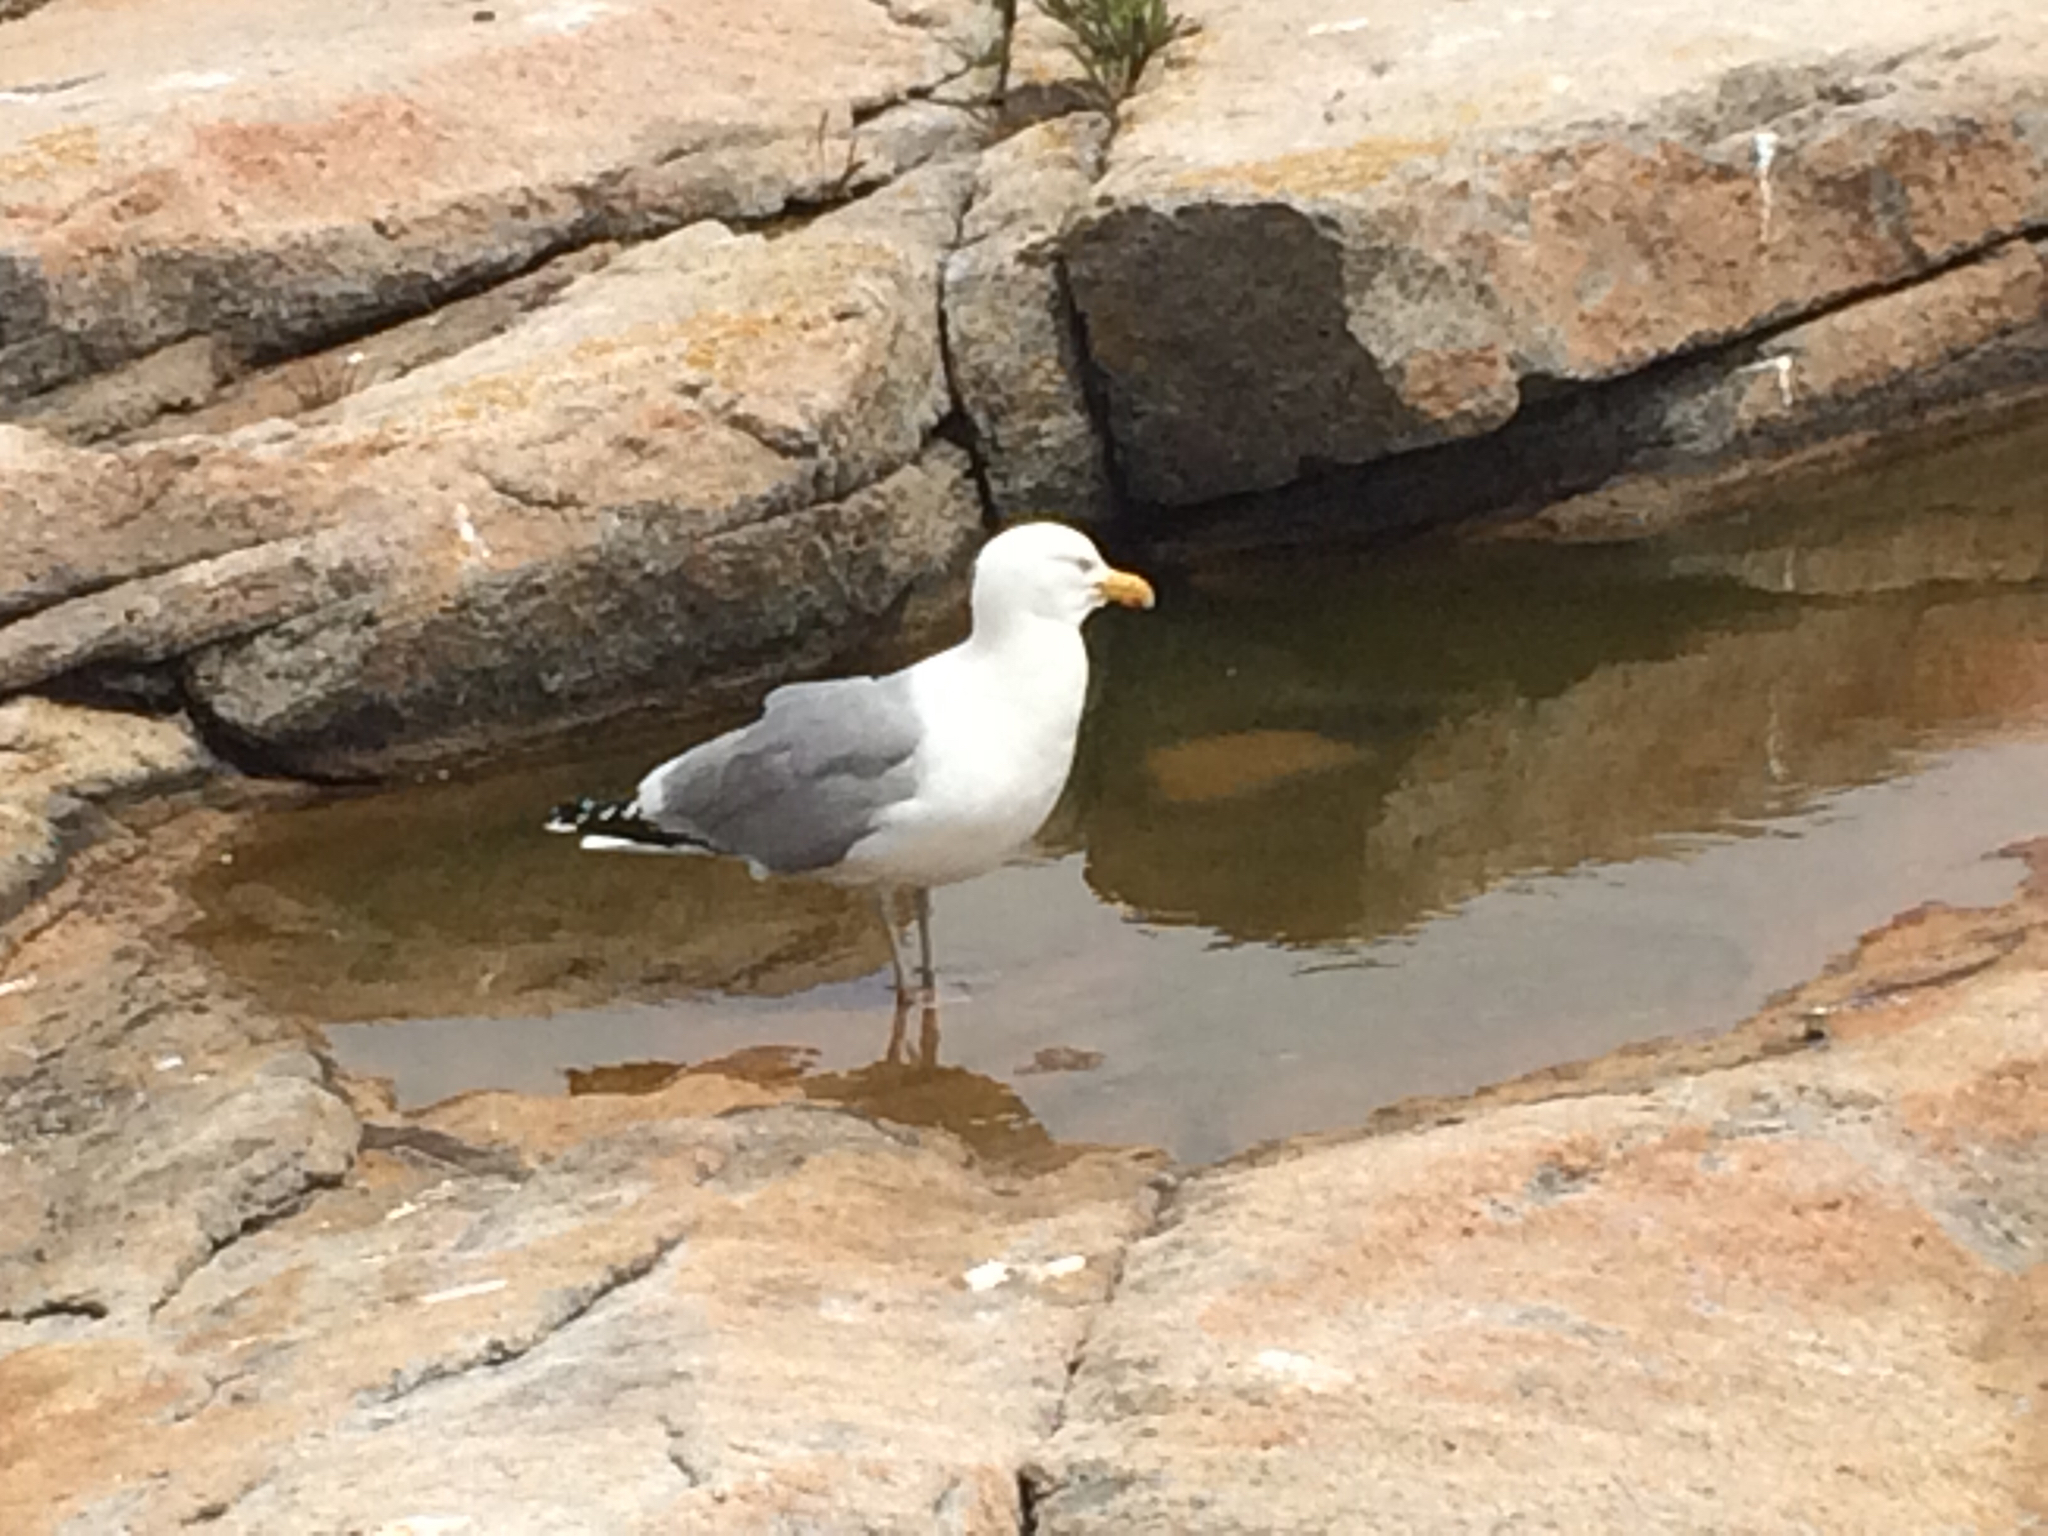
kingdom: Animalia
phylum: Chordata
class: Aves
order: Charadriiformes
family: Laridae
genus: Larus
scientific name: Larus smithsonianus
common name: American herring gull
